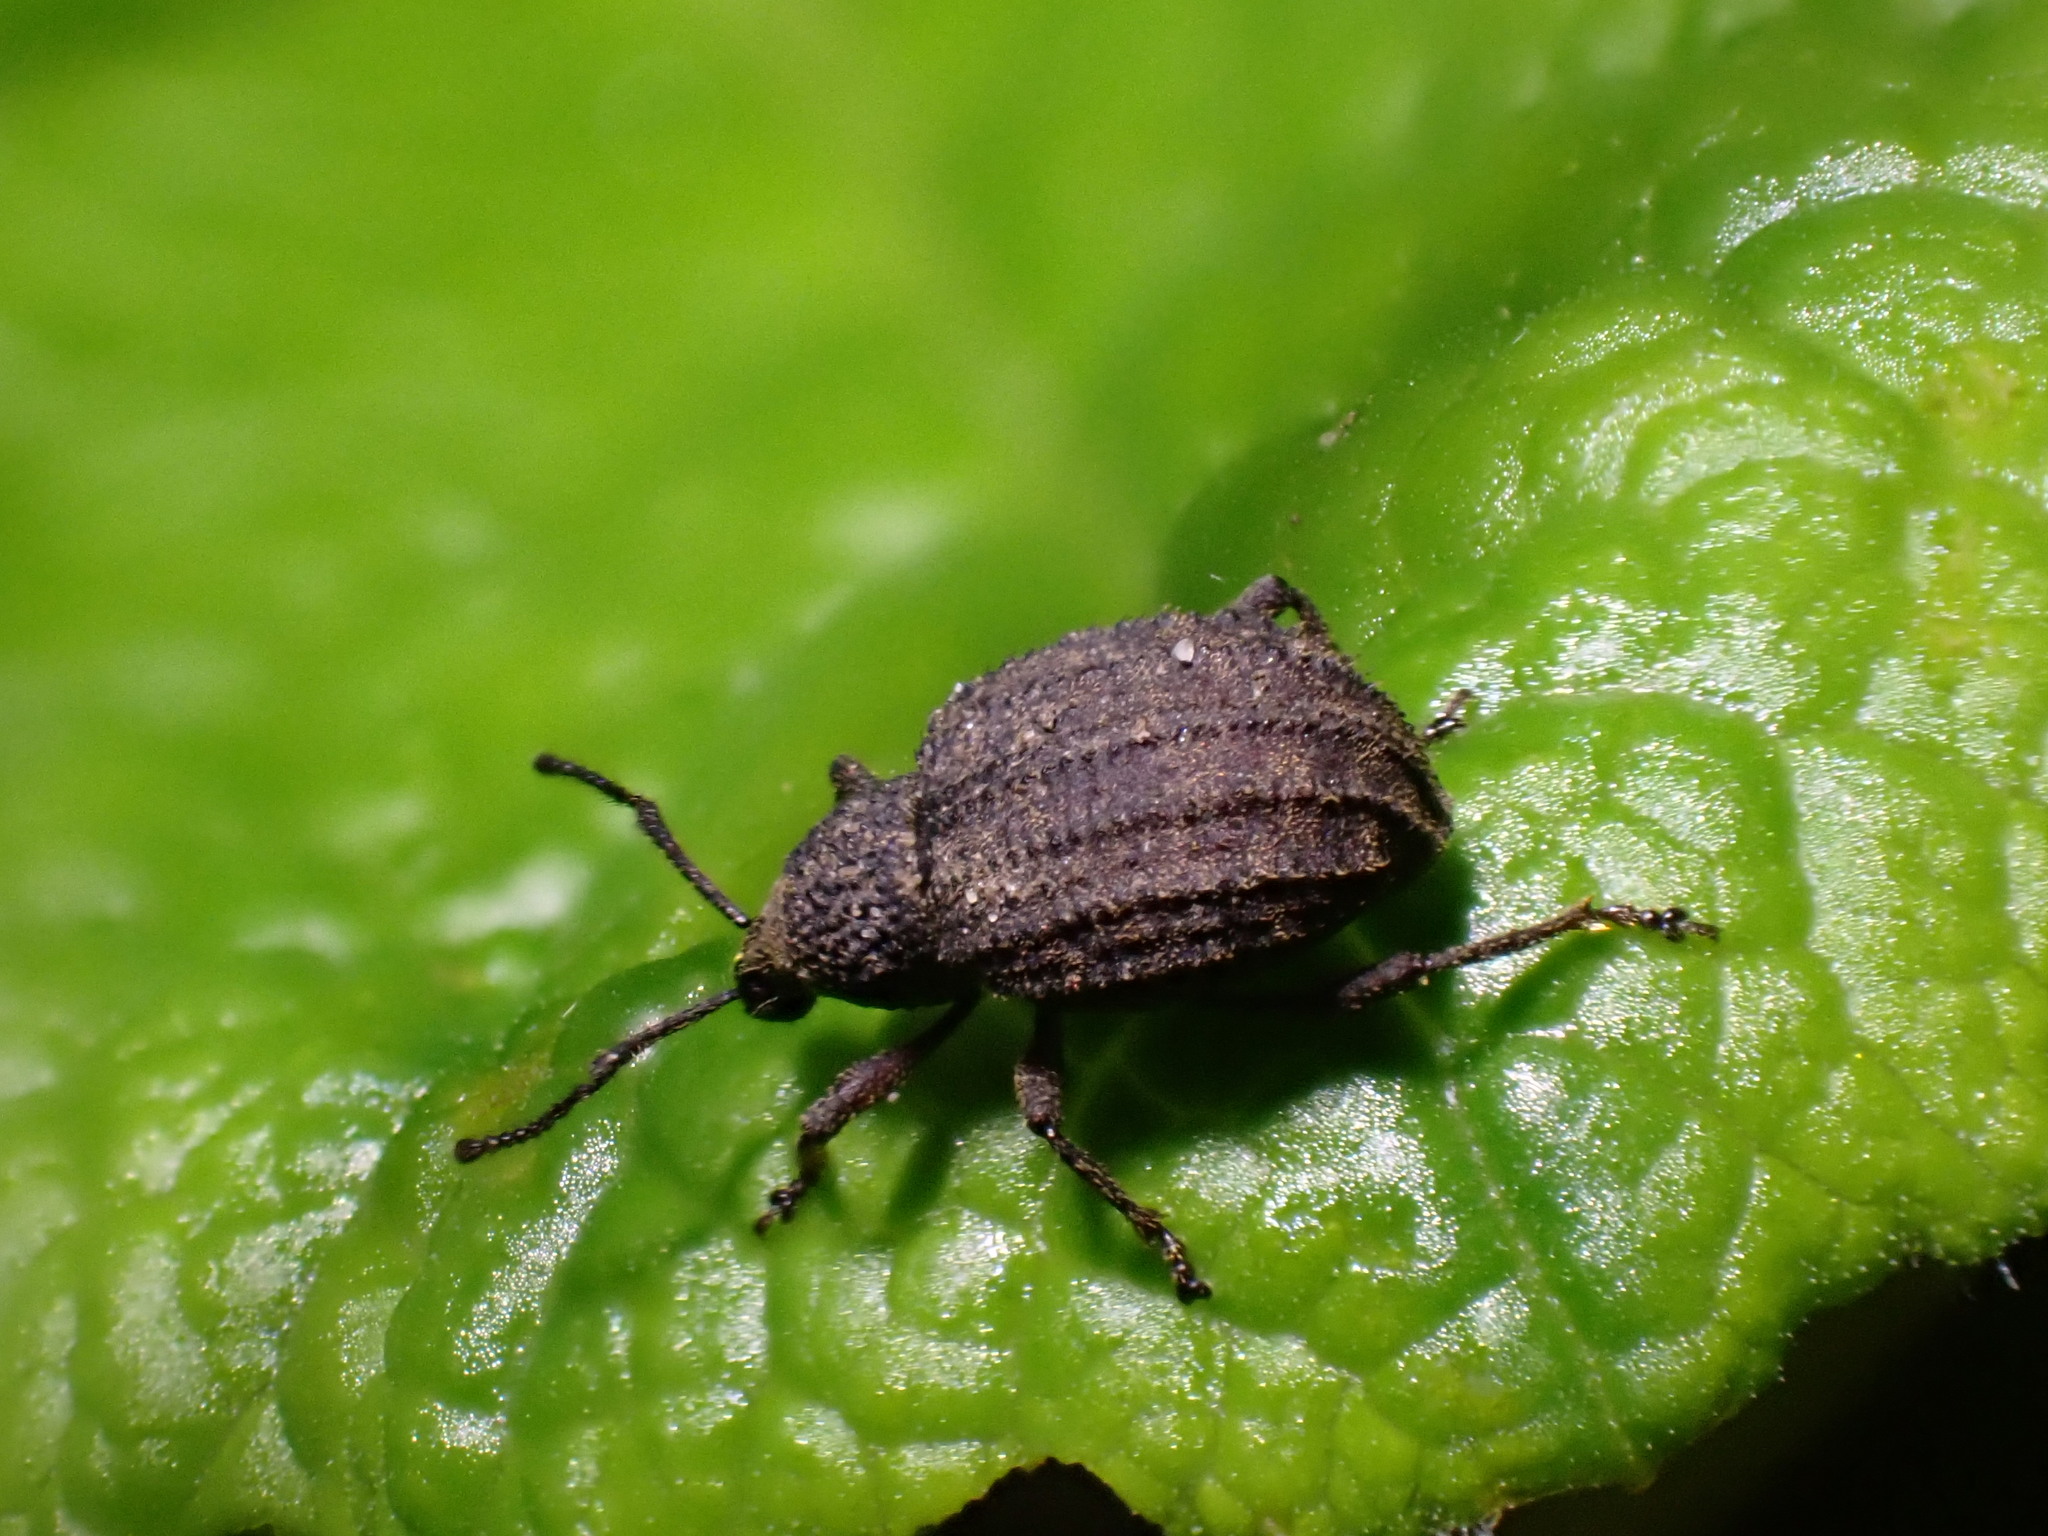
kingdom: Animalia
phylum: Arthropoda
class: Insecta
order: Coleoptera
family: Curculionidae
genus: Otiorhynchus
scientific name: Otiorhynchus porcatus
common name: Weevil
